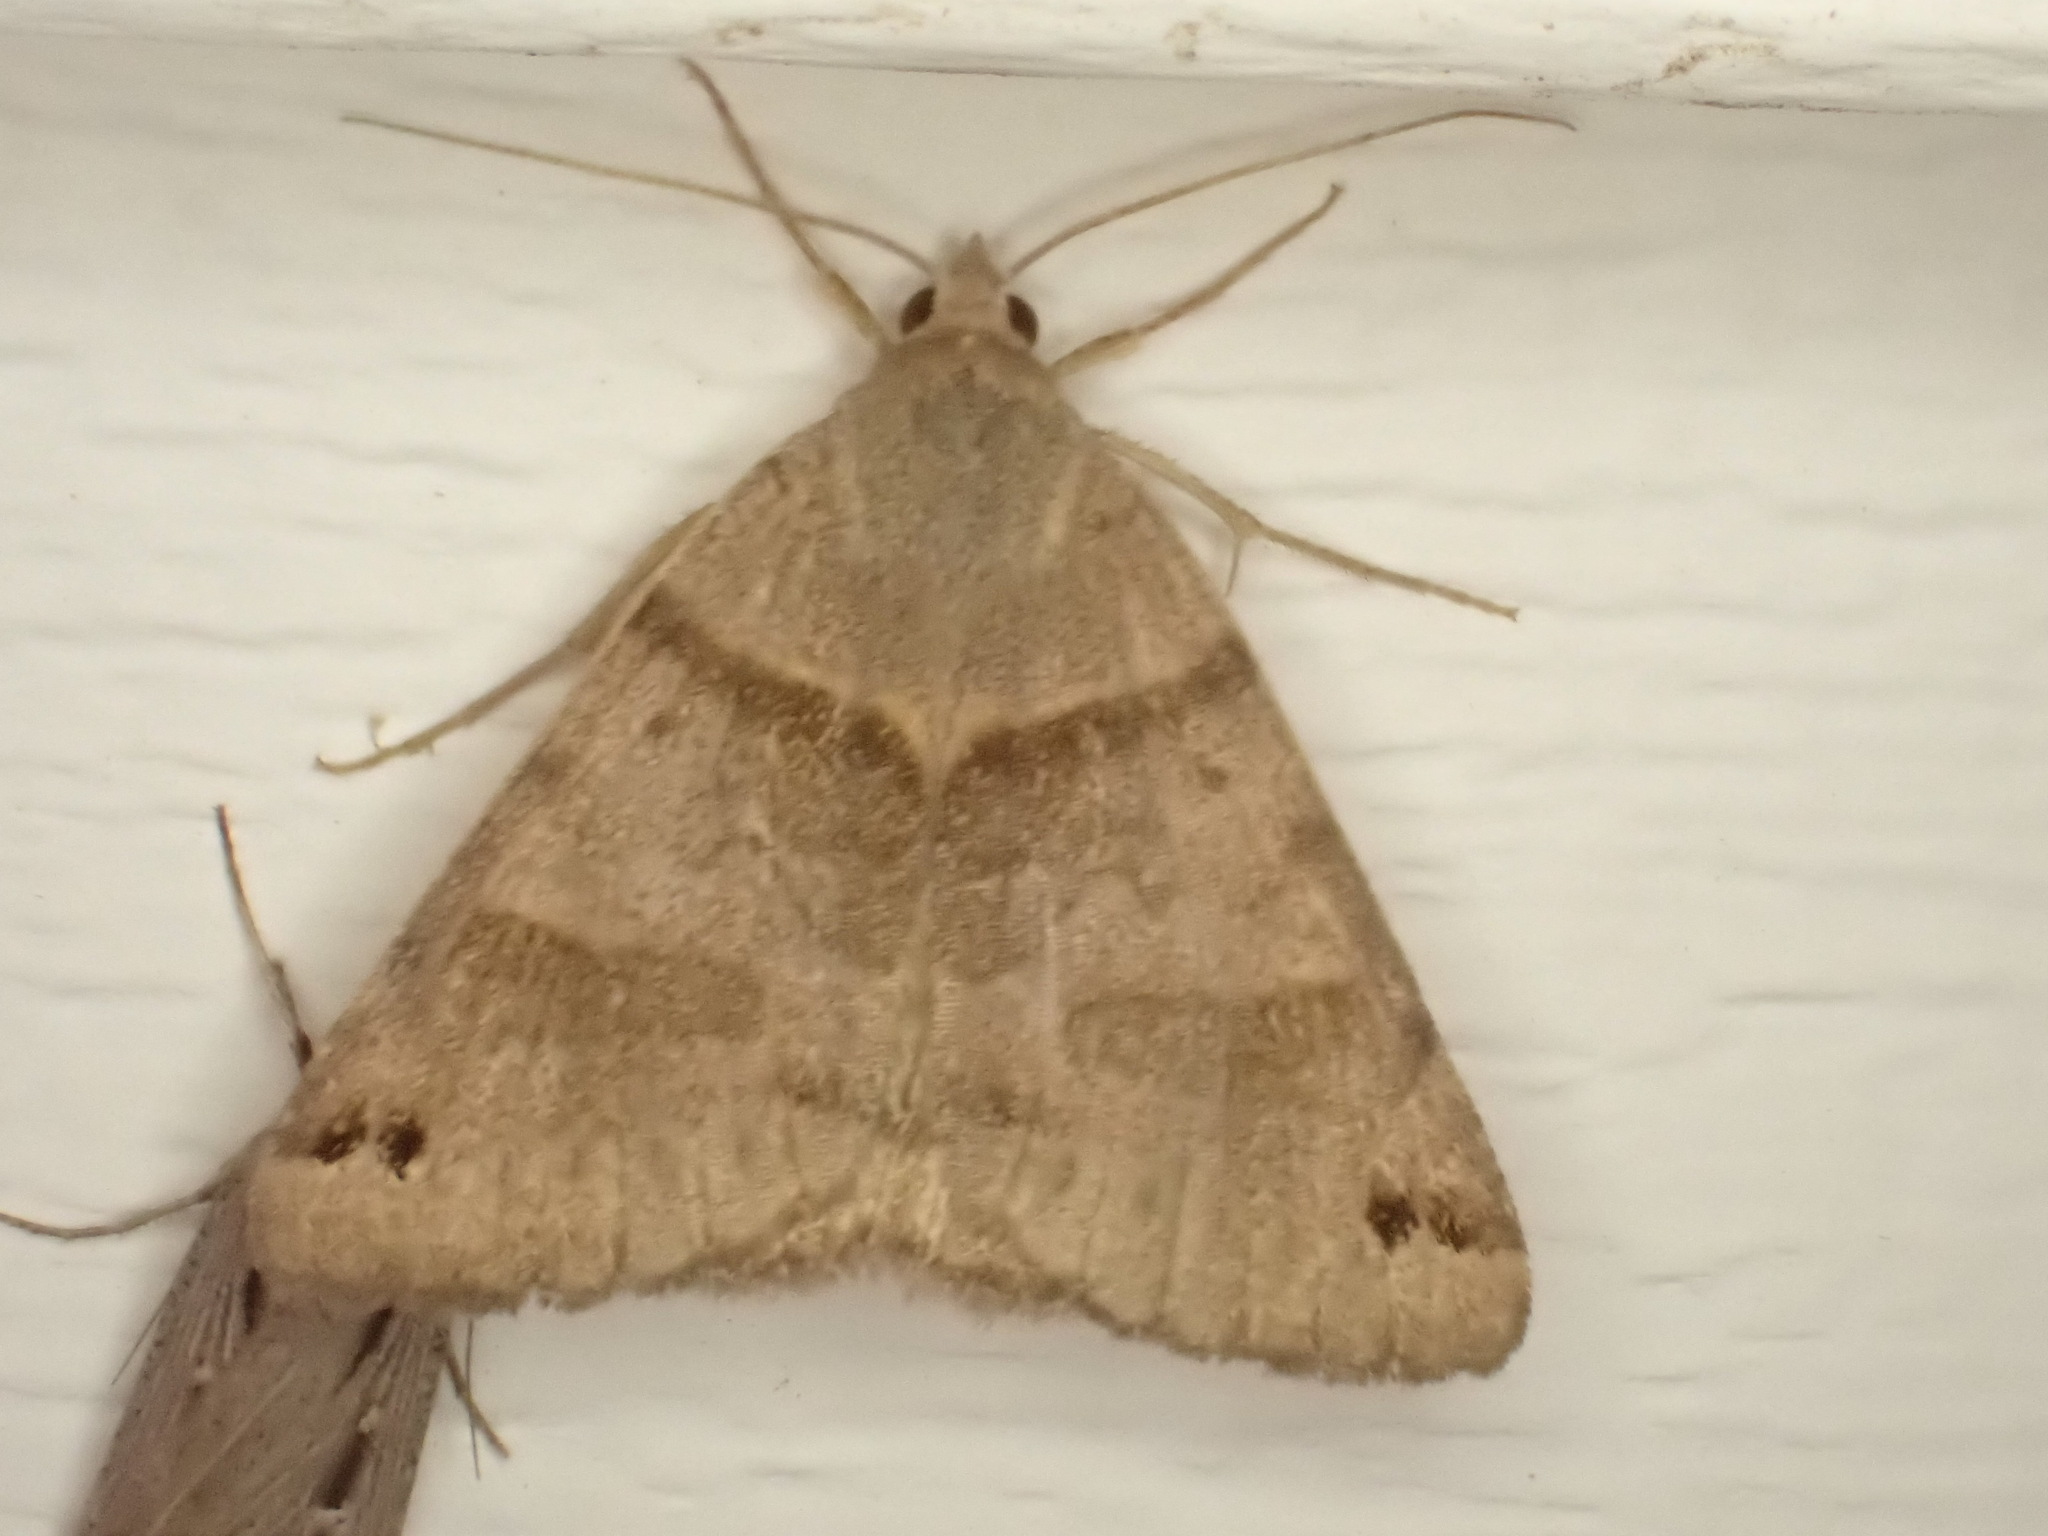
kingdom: Animalia
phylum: Arthropoda
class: Insecta
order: Lepidoptera
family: Erebidae
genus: Caenurgina
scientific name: Caenurgina crassiuscula
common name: Double-barred
